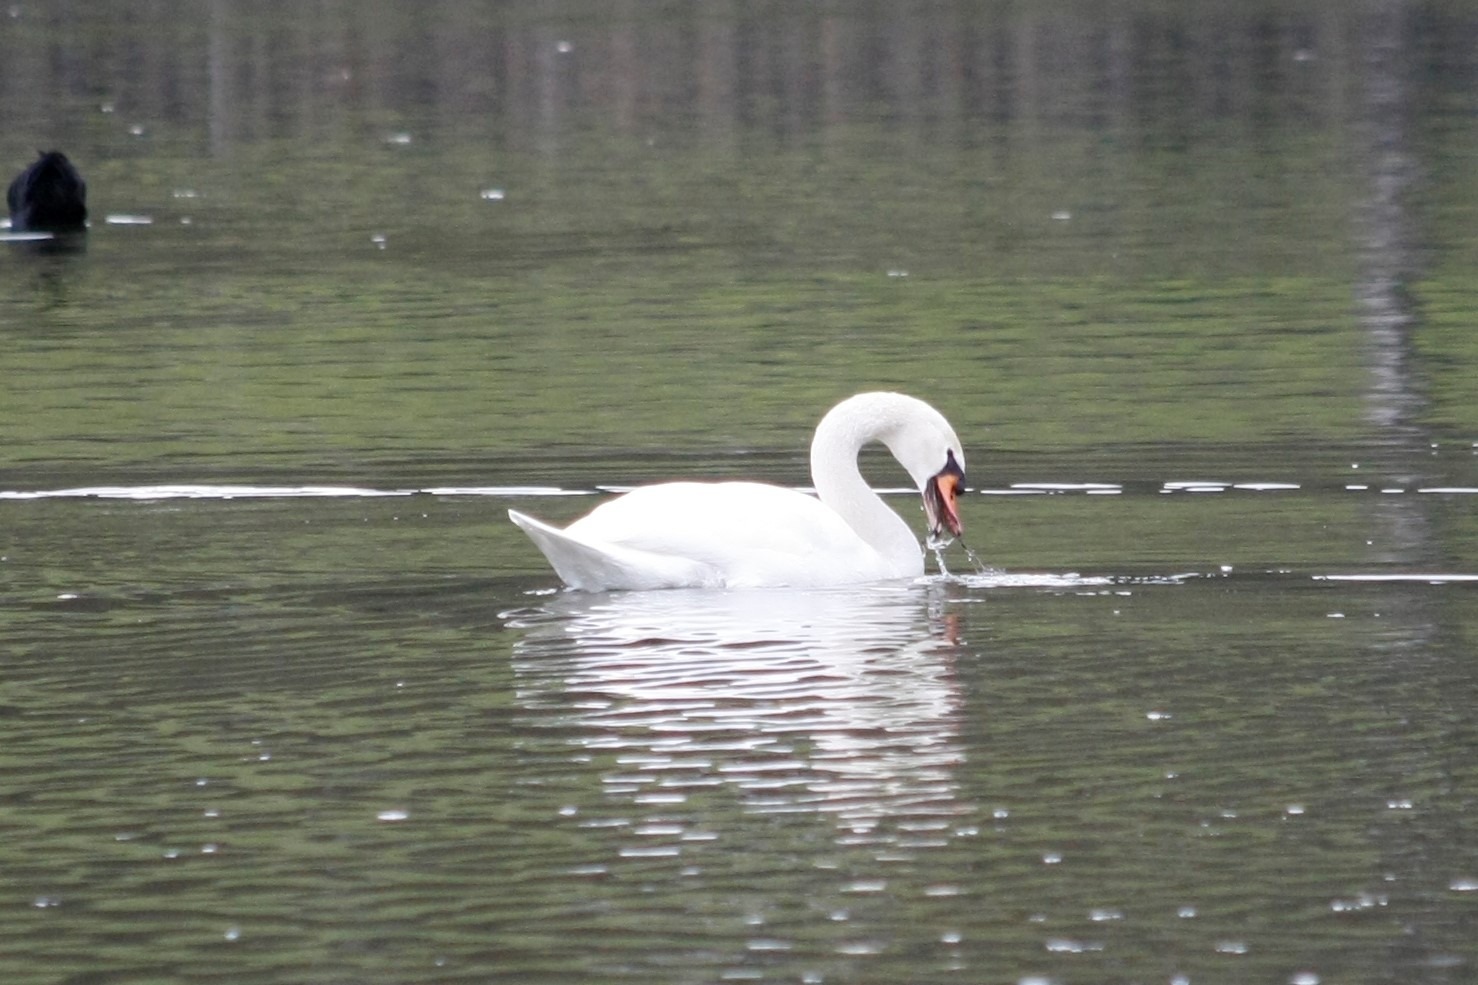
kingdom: Animalia
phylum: Chordata
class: Aves
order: Anseriformes
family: Anatidae
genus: Cygnus
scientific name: Cygnus olor
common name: Mute swan
